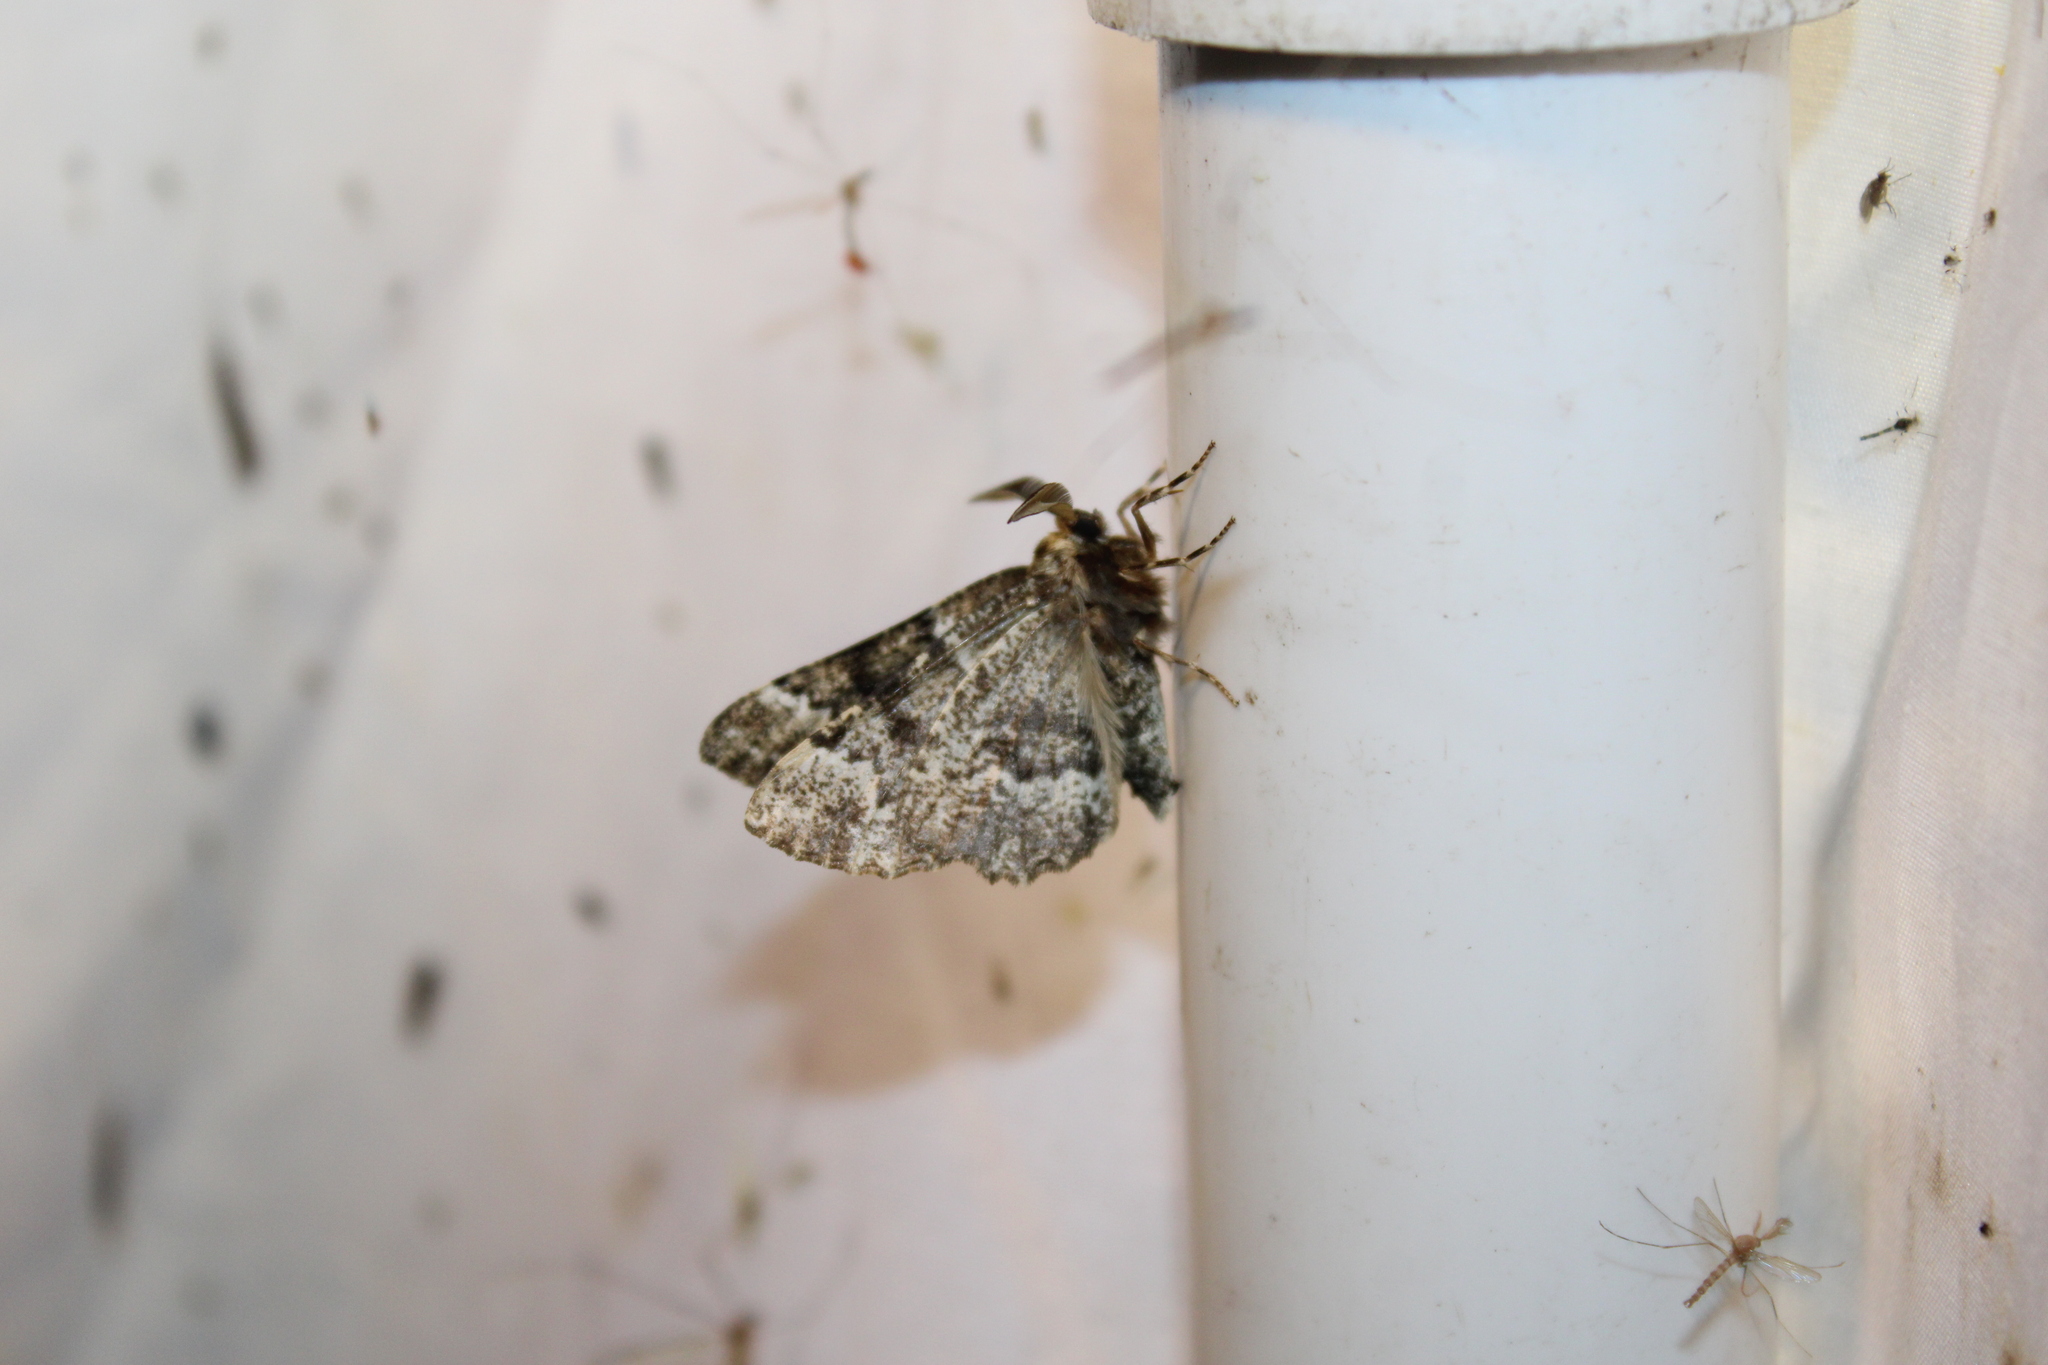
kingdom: Animalia
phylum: Arthropoda
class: Insecta
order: Lepidoptera
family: Geometridae
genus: Phaeoura
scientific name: Phaeoura quernaria
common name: Oak beauty
